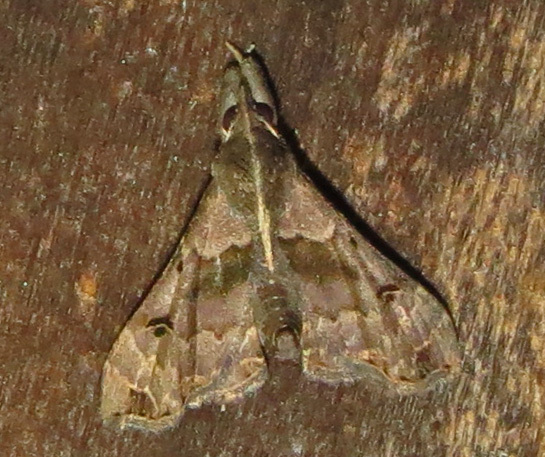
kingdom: Animalia
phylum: Arthropoda
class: Insecta
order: Lepidoptera
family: Erebidae
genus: Palthis
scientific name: Palthis asopialis
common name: Faint-spotted palthis moth
